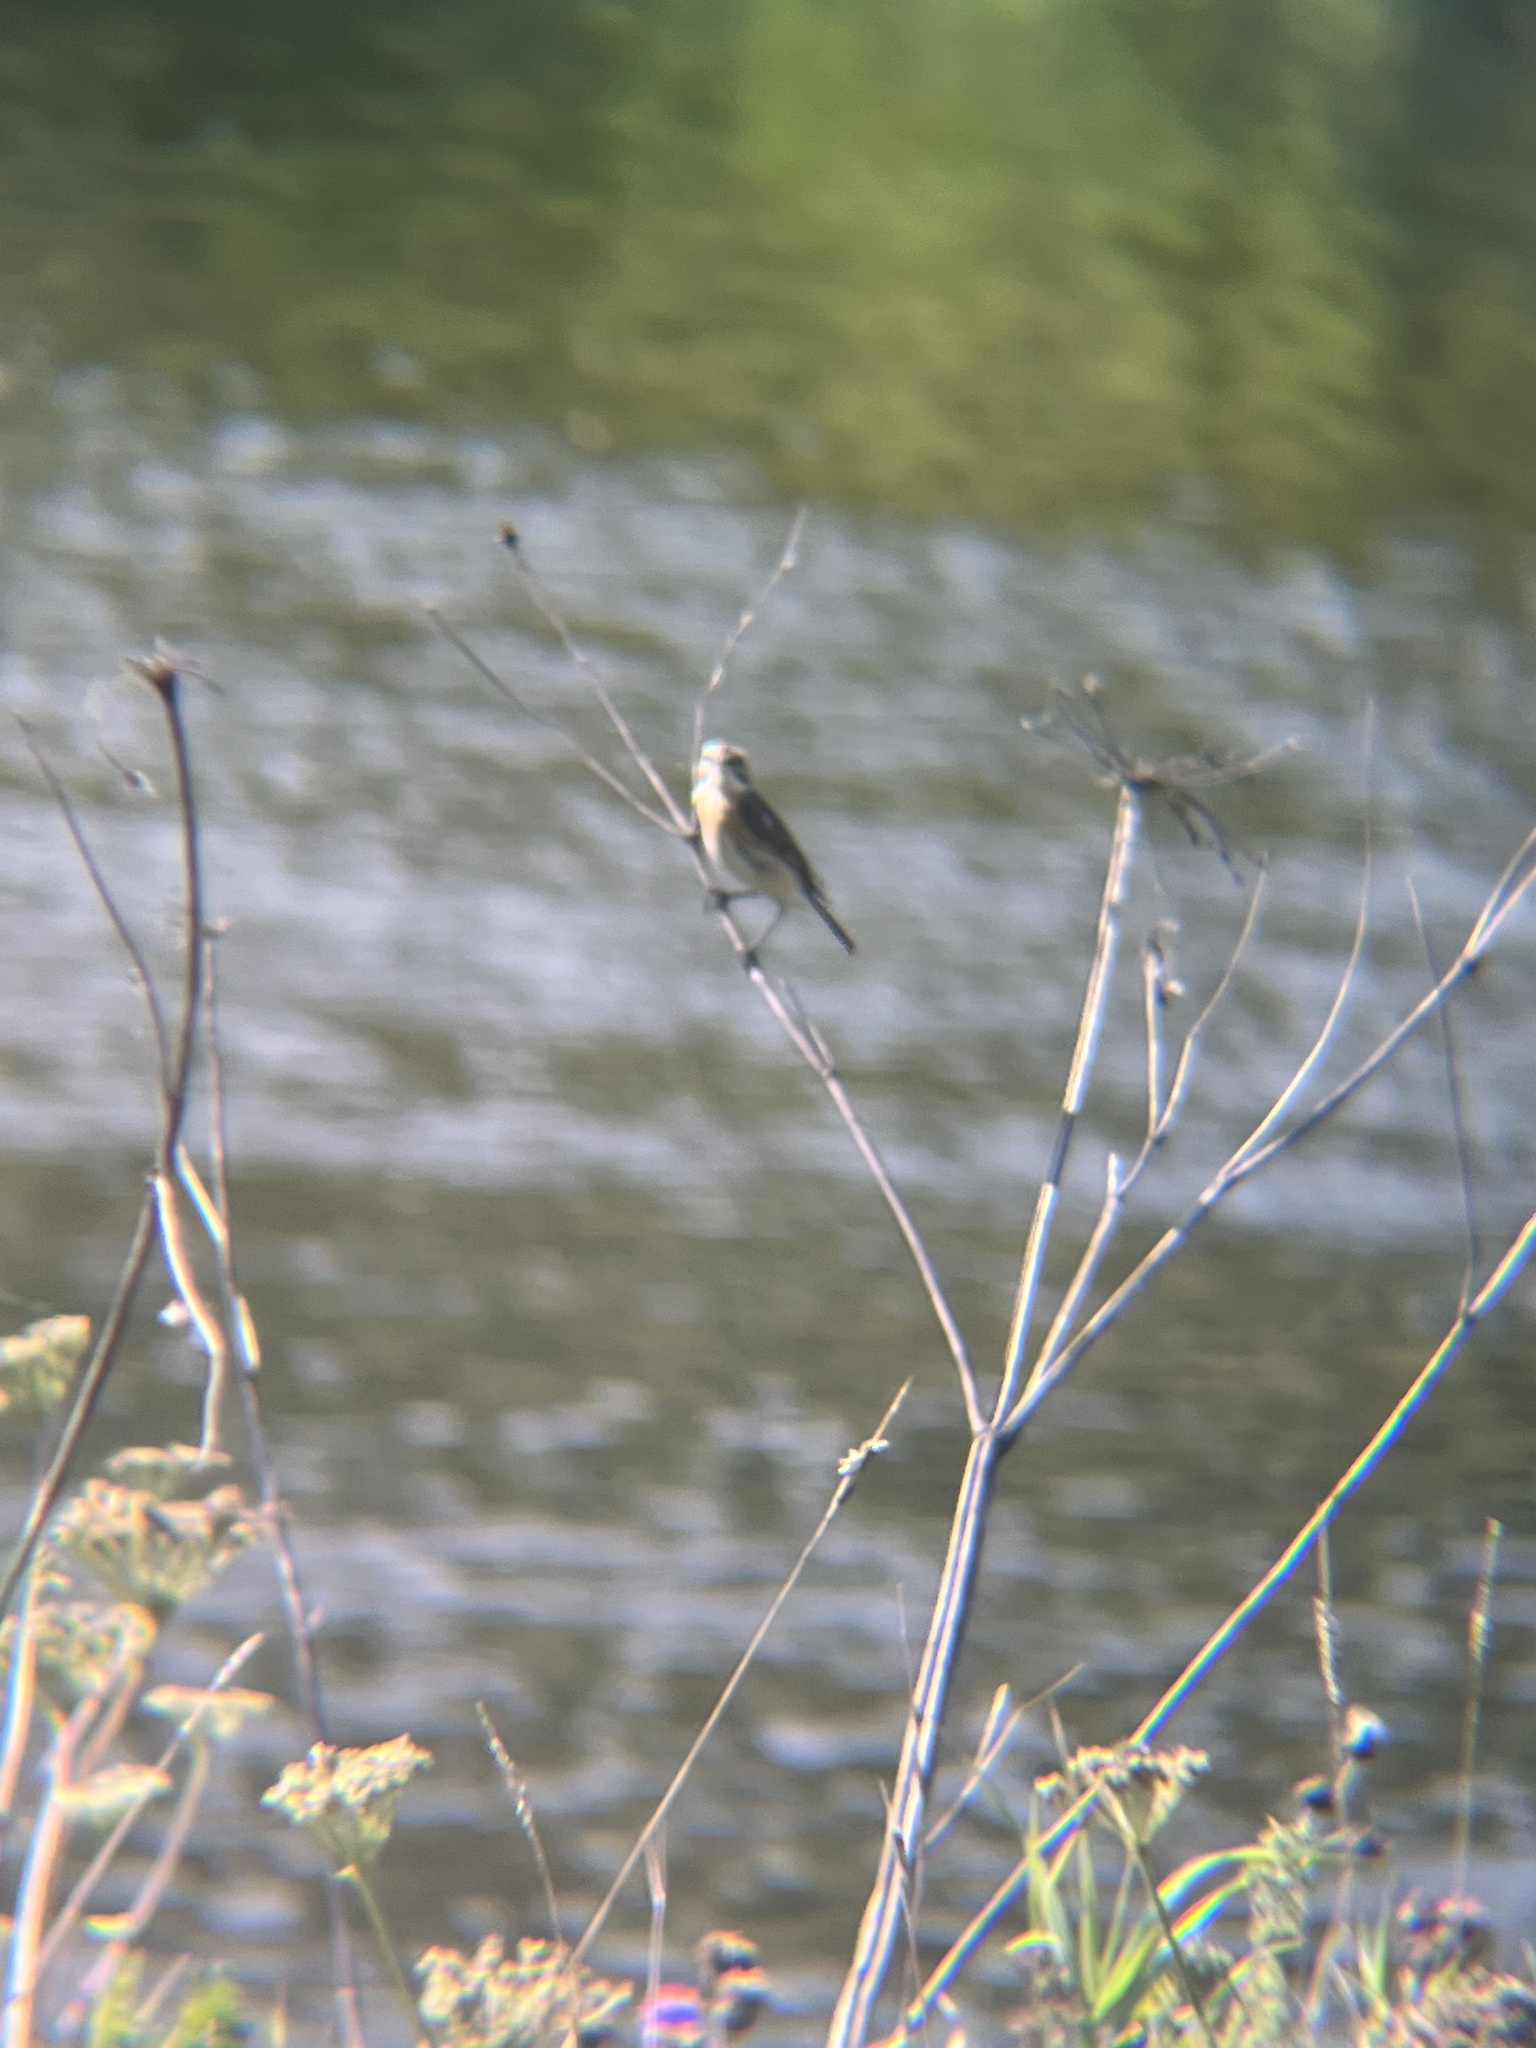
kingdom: Animalia
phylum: Chordata
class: Aves
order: Passeriformes
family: Muscicapidae
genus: Saxicola
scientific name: Saxicola rubetra
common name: Whinchat
